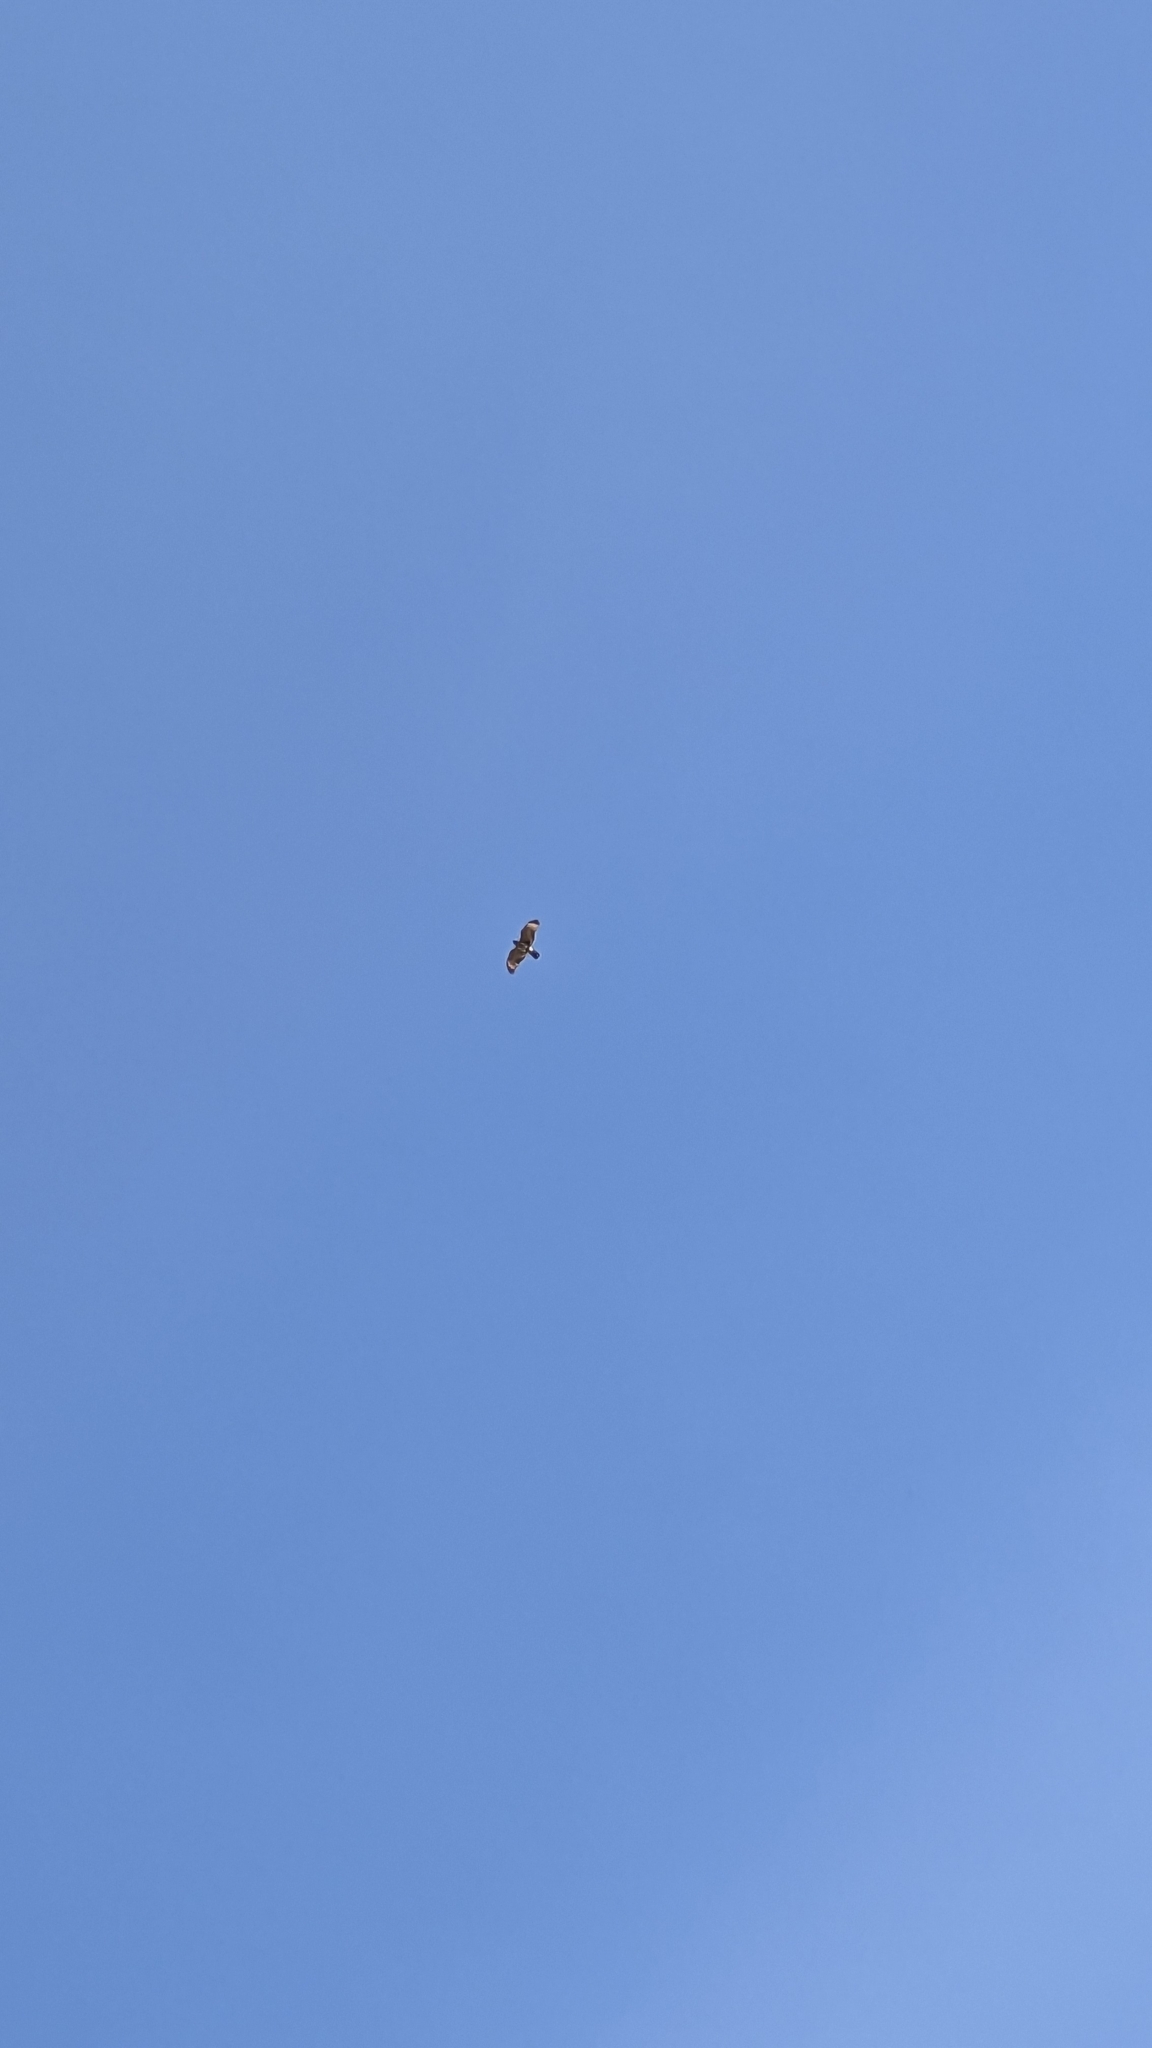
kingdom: Animalia
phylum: Chordata
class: Aves
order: Accipitriformes
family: Accipitridae
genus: Buteo
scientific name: Buteo lineatus
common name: Red-shouldered hawk
